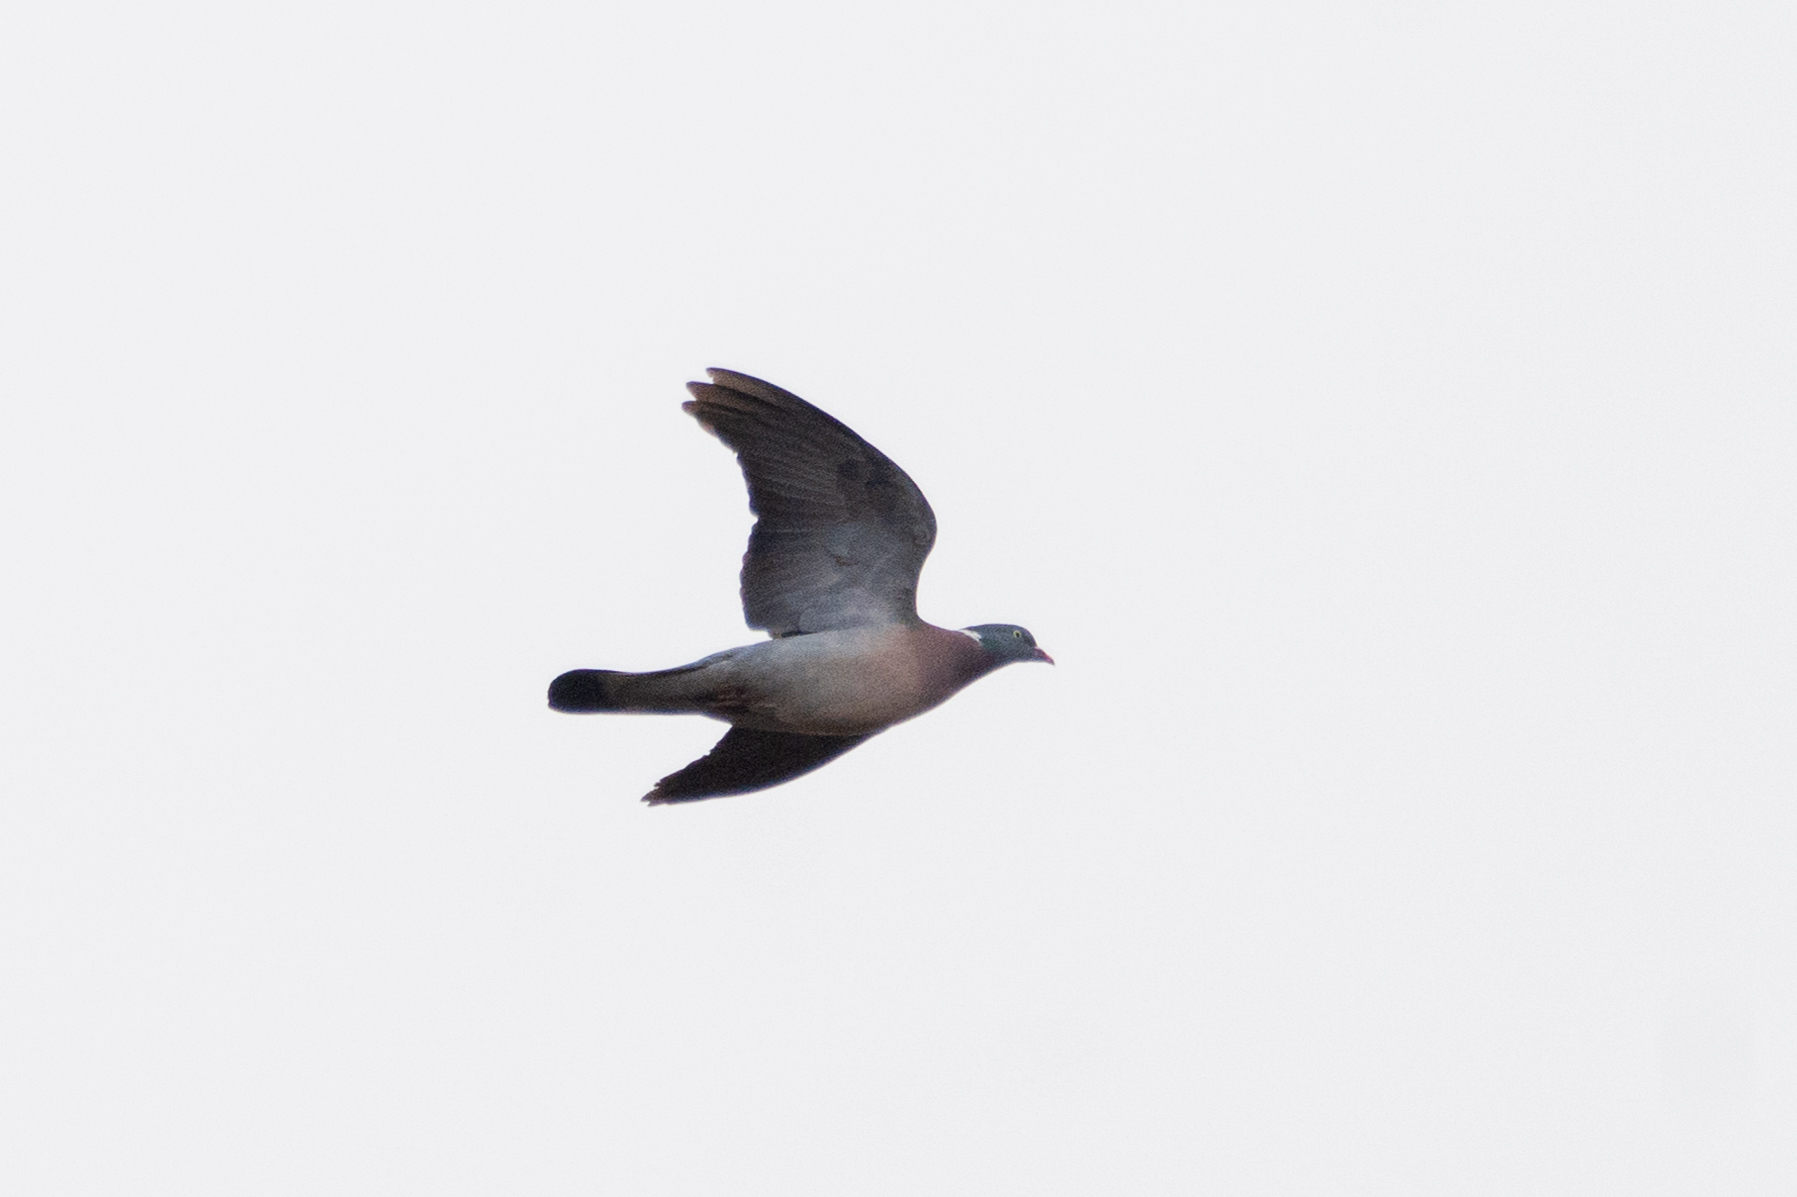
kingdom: Animalia
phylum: Chordata
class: Aves
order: Columbiformes
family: Columbidae
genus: Columba
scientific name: Columba palumbus
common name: Common wood pigeon
